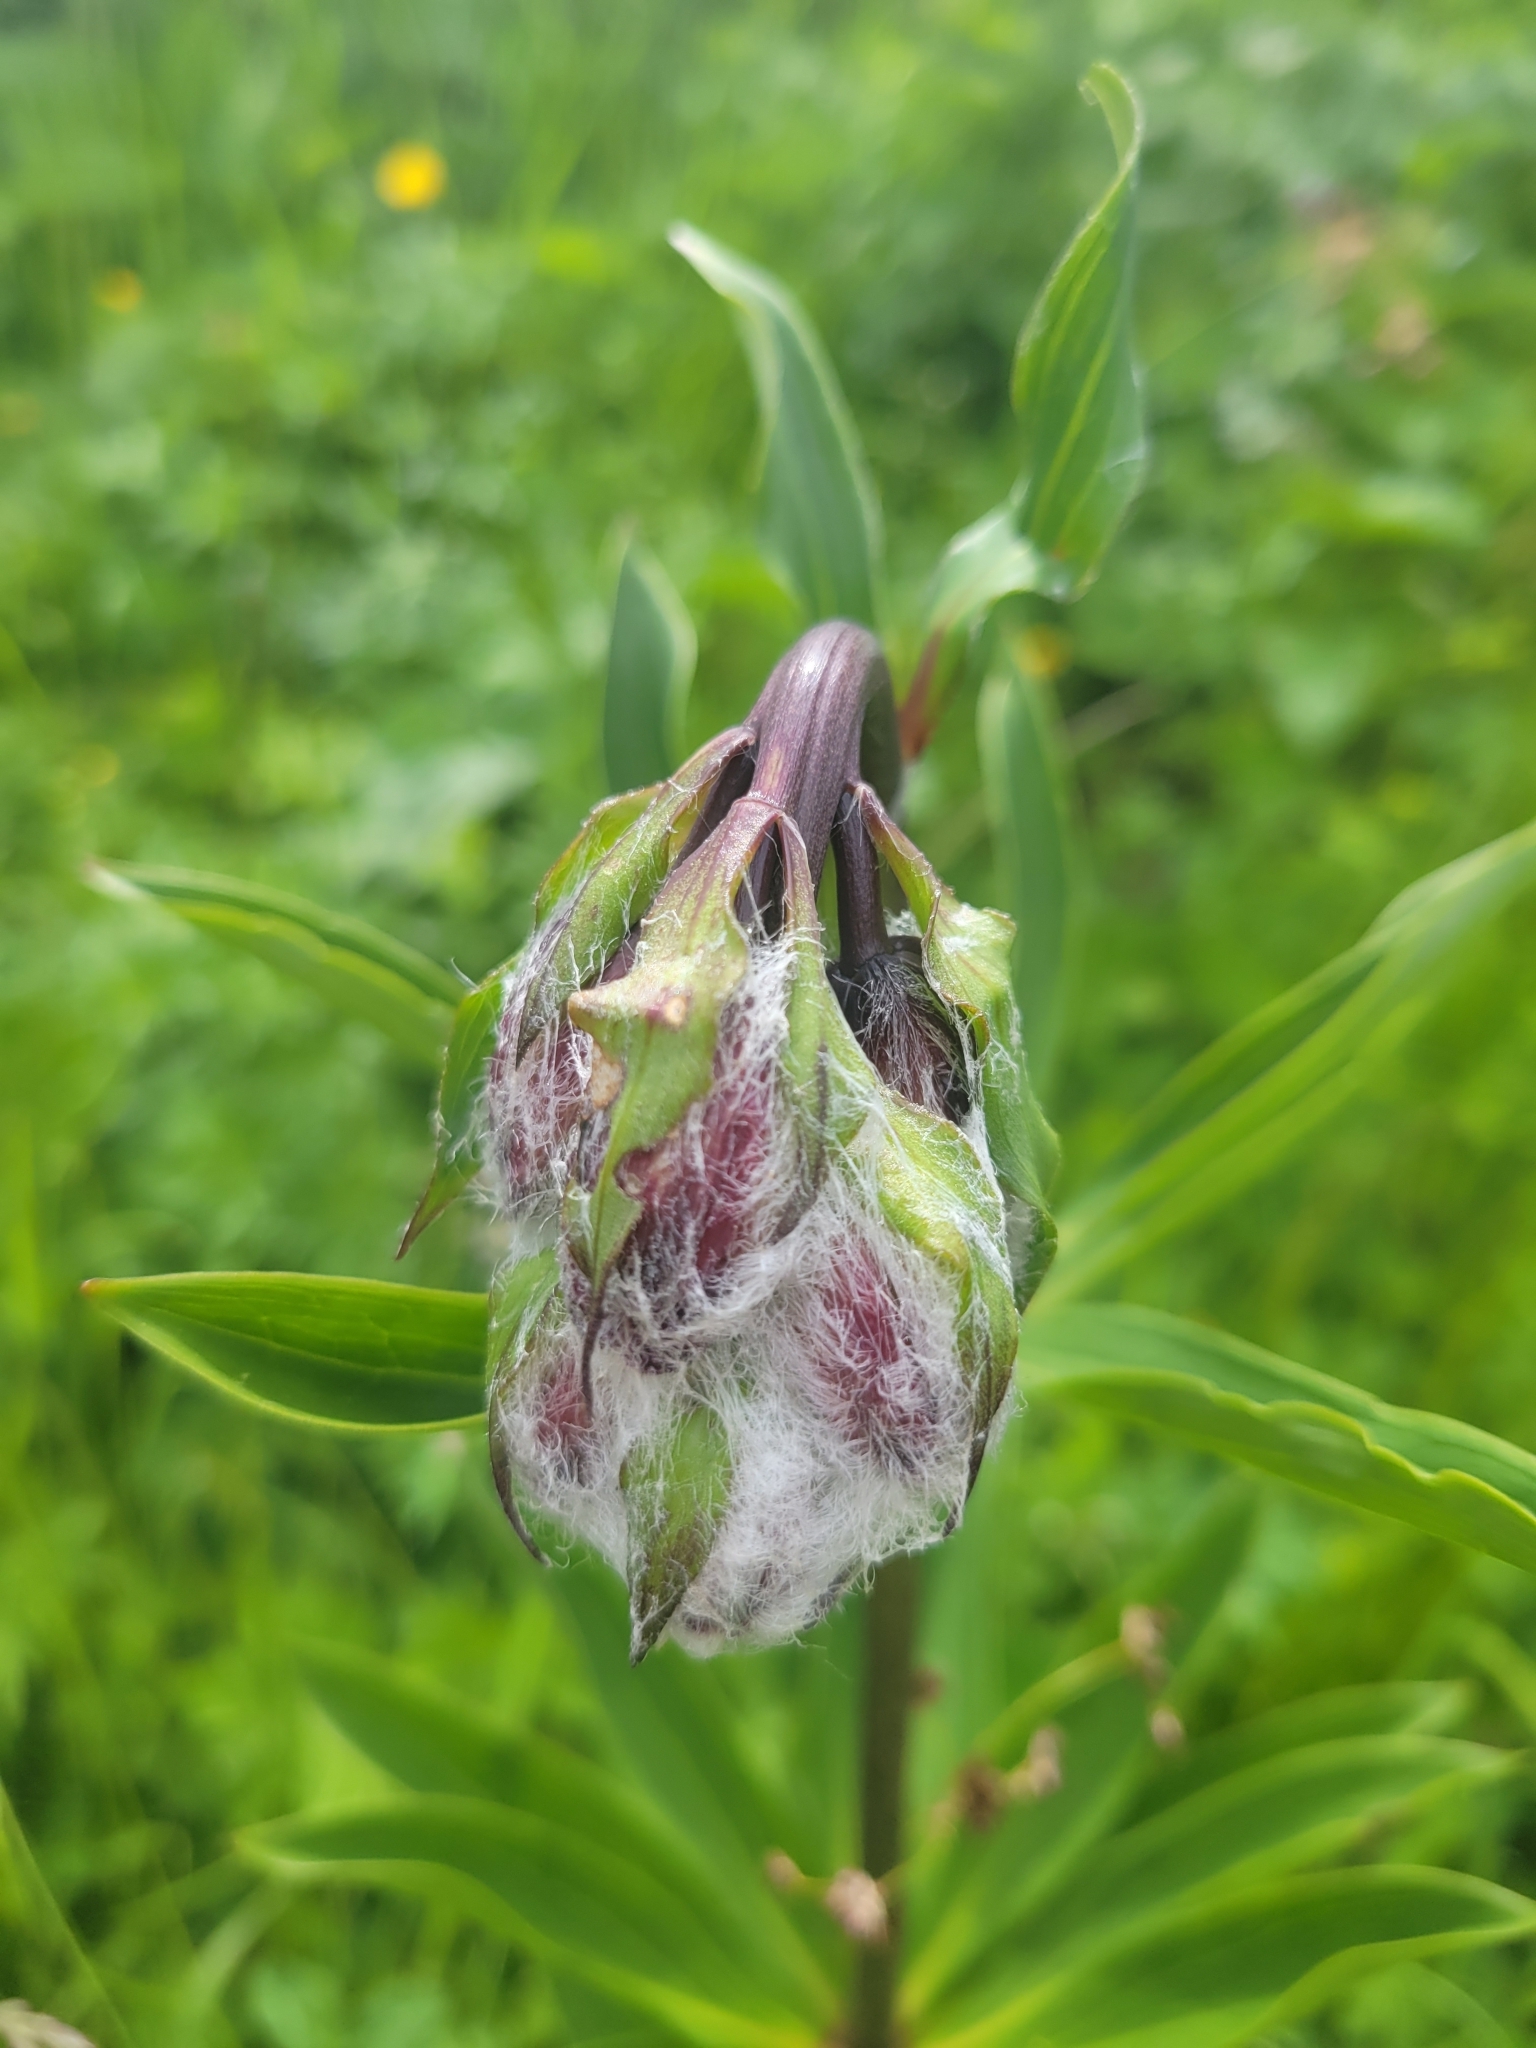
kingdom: Plantae
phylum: Tracheophyta
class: Liliopsida
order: Liliales
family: Liliaceae
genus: Lilium
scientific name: Lilium martagon
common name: Martagon lily
